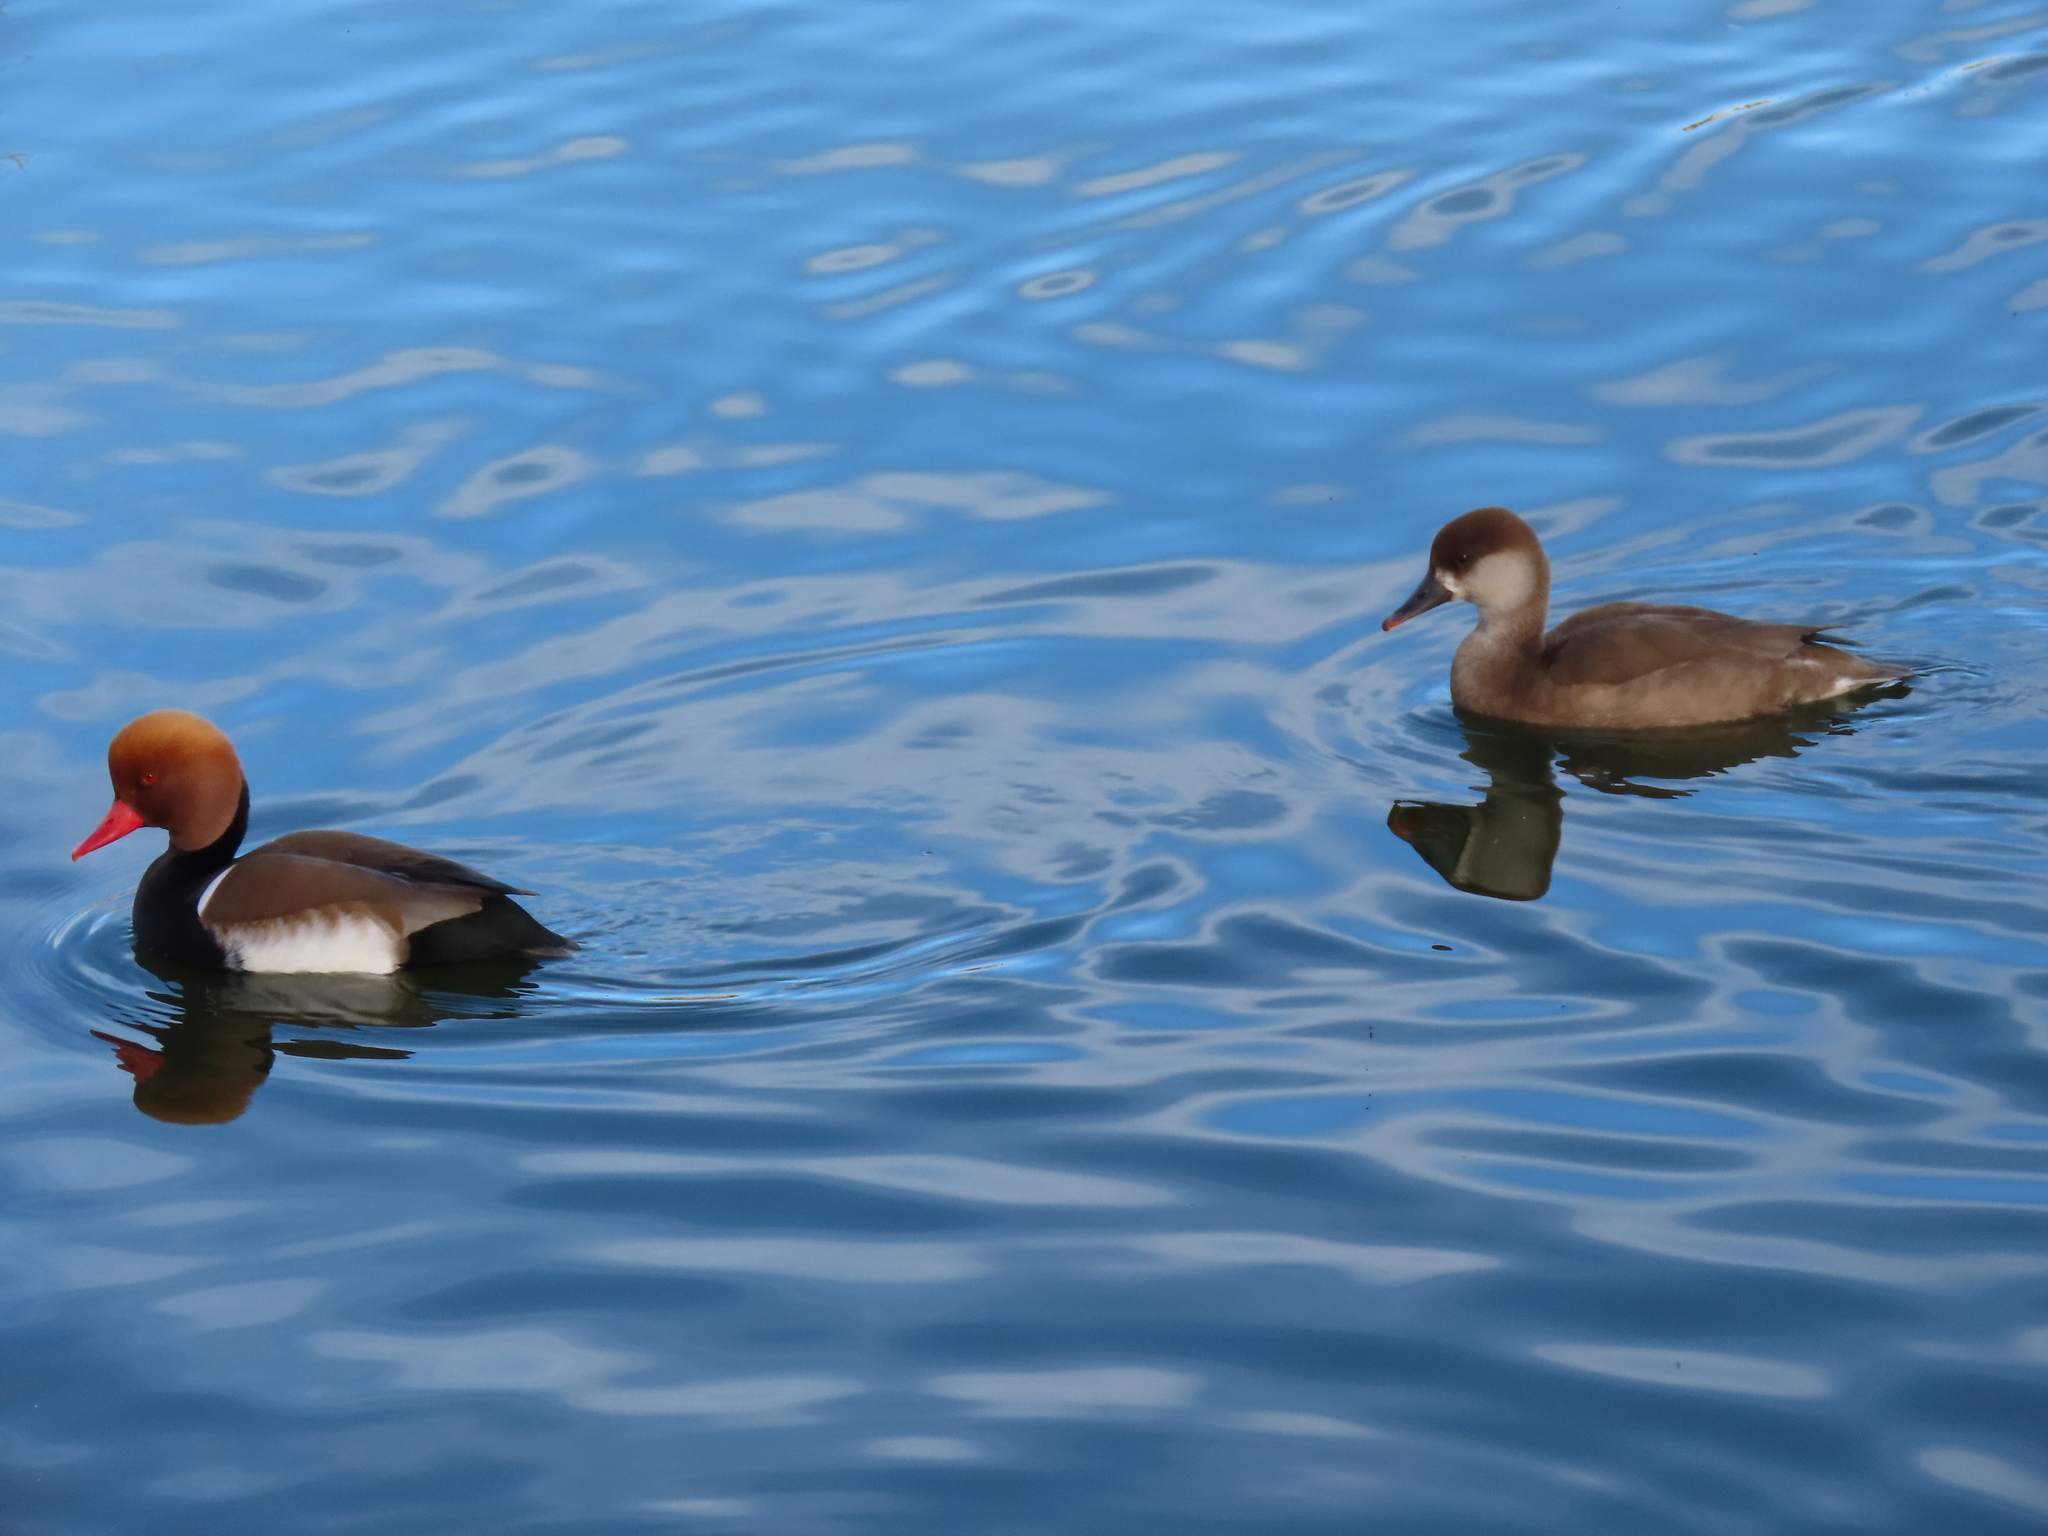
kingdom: Animalia
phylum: Chordata
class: Aves
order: Anseriformes
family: Anatidae
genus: Netta
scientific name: Netta rufina
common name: Red-crested pochard
